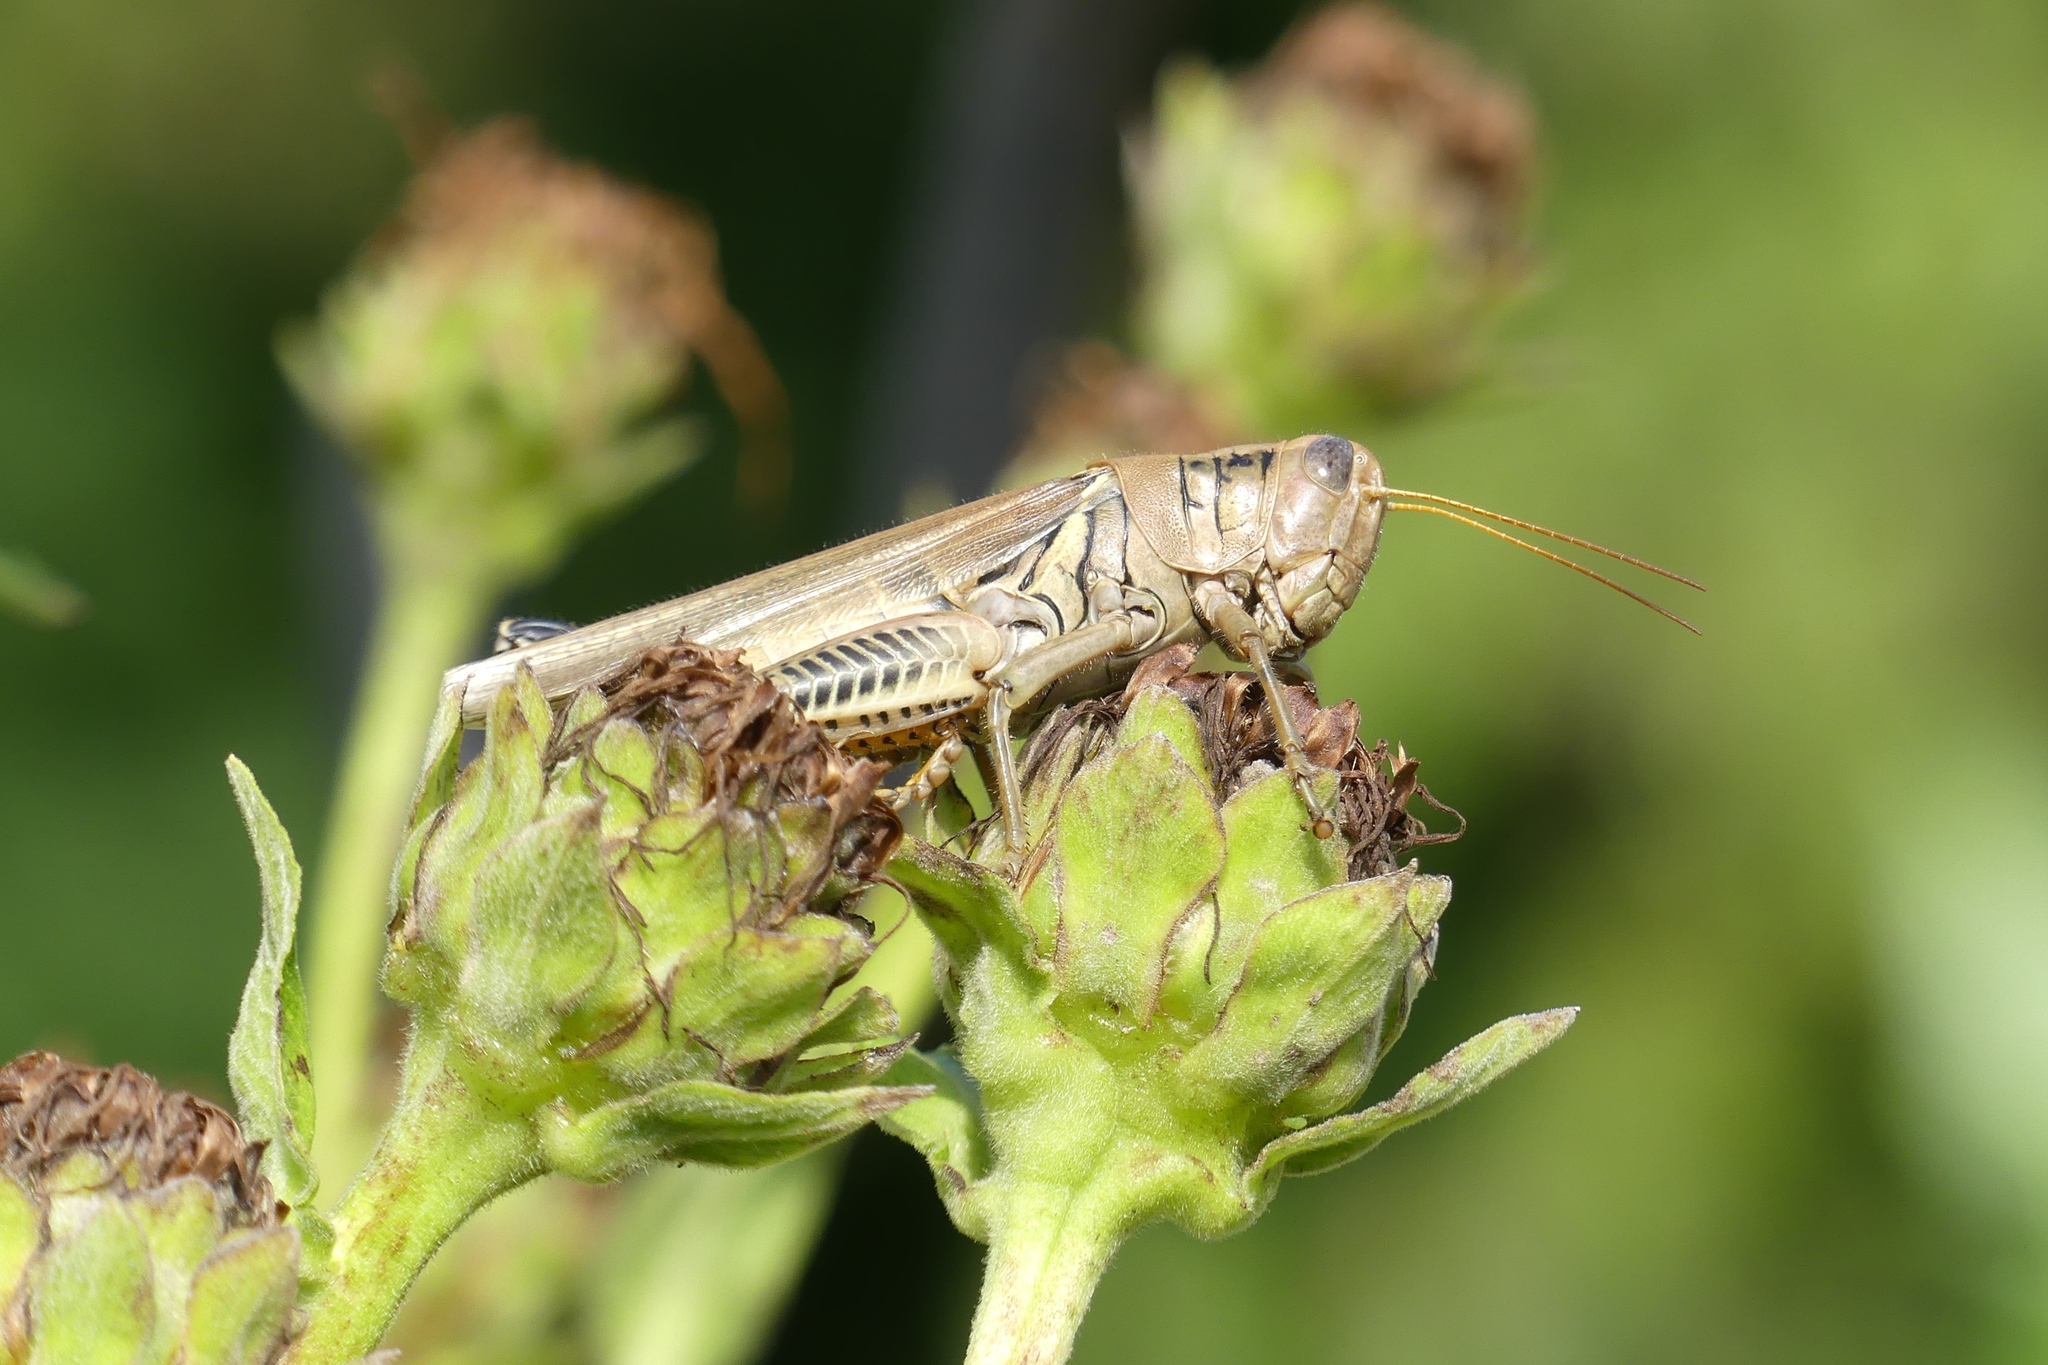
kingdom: Animalia
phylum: Arthropoda
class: Insecta
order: Orthoptera
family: Acrididae
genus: Melanoplus
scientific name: Melanoplus differentialis
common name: Differential grasshopper
